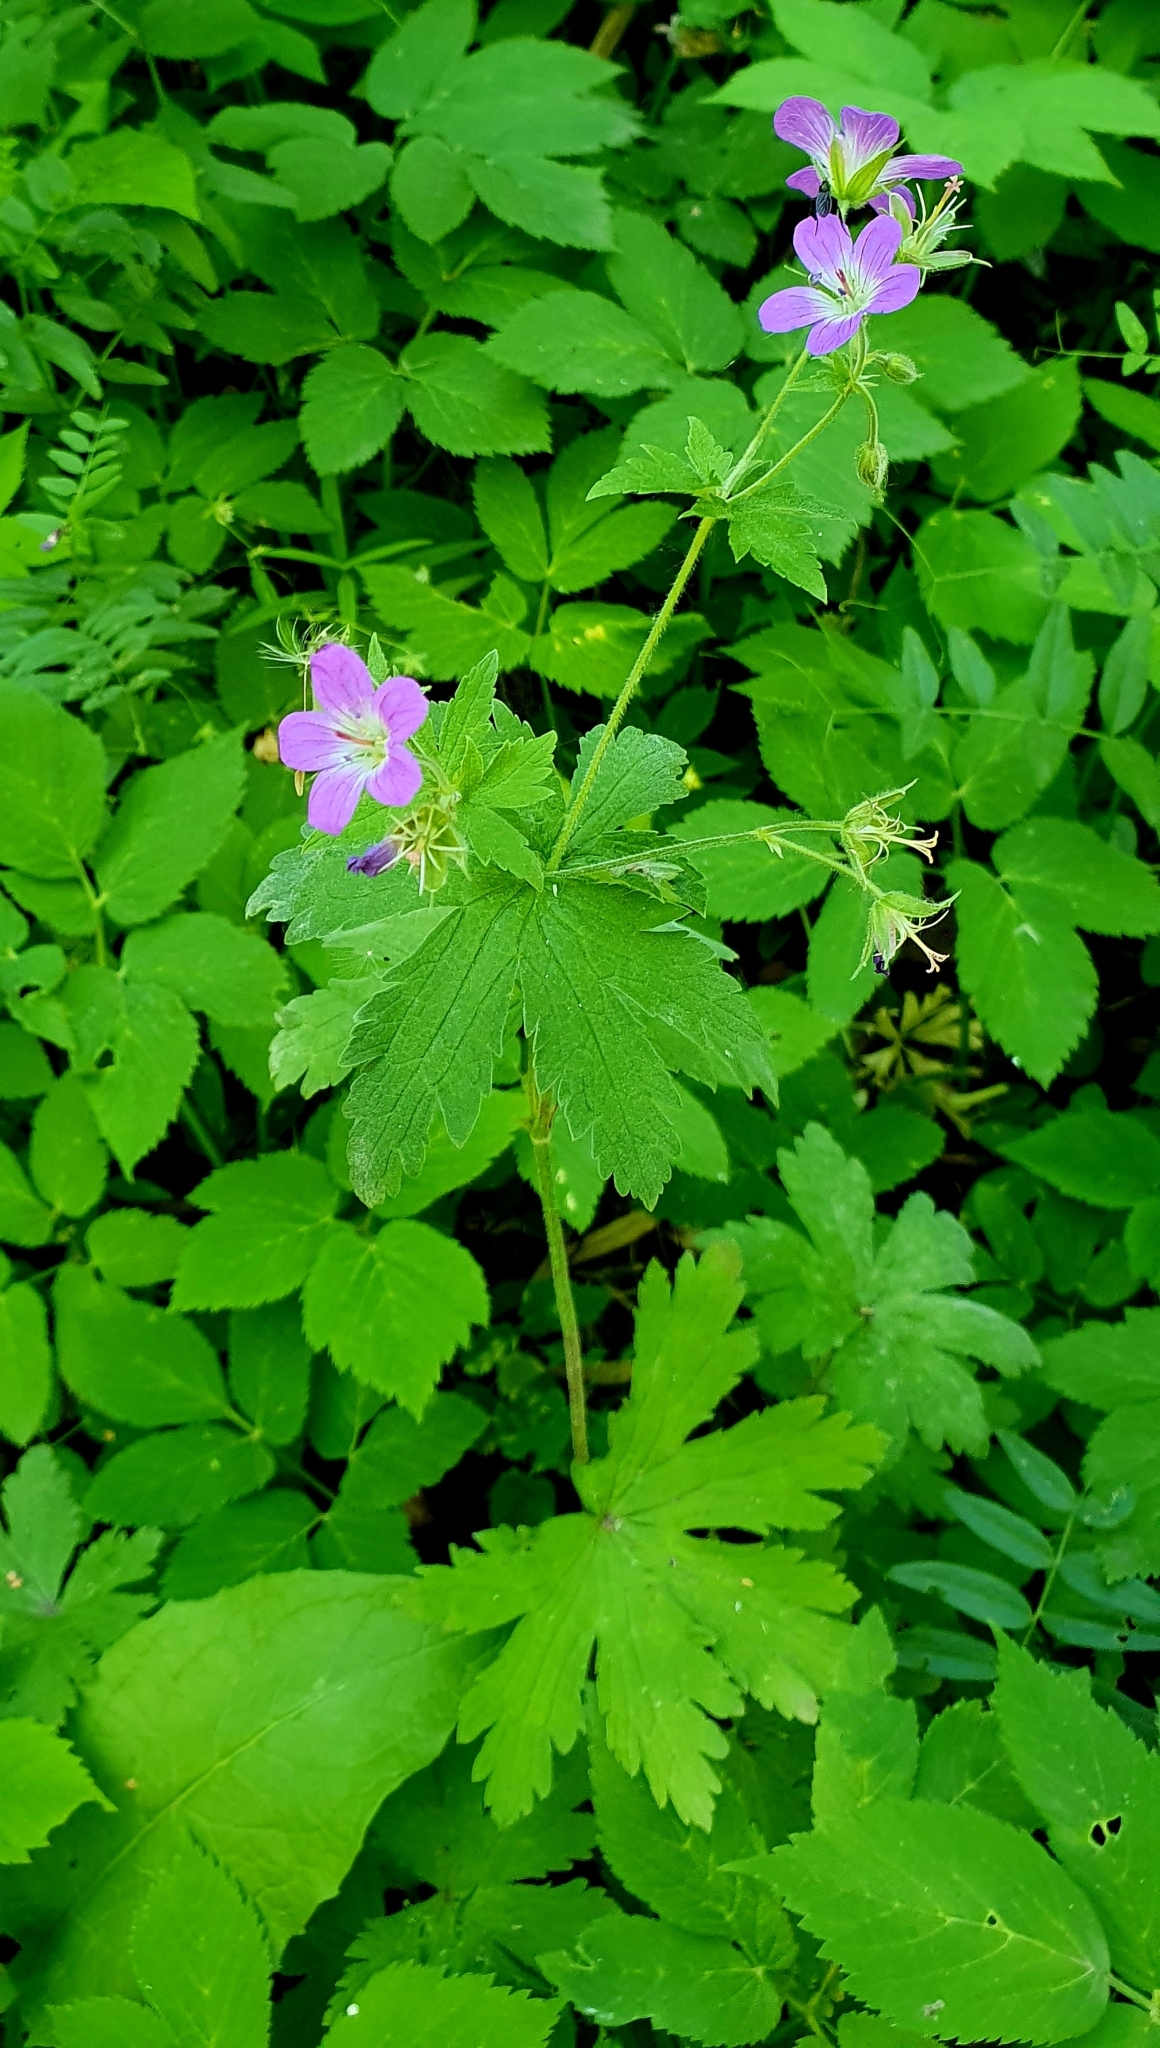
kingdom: Plantae
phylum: Tracheophyta
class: Magnoliopsida
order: Geraniales
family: Geraniaceae
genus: Geranium
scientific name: Geranium sylvaticum
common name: Wood crane's-bill
